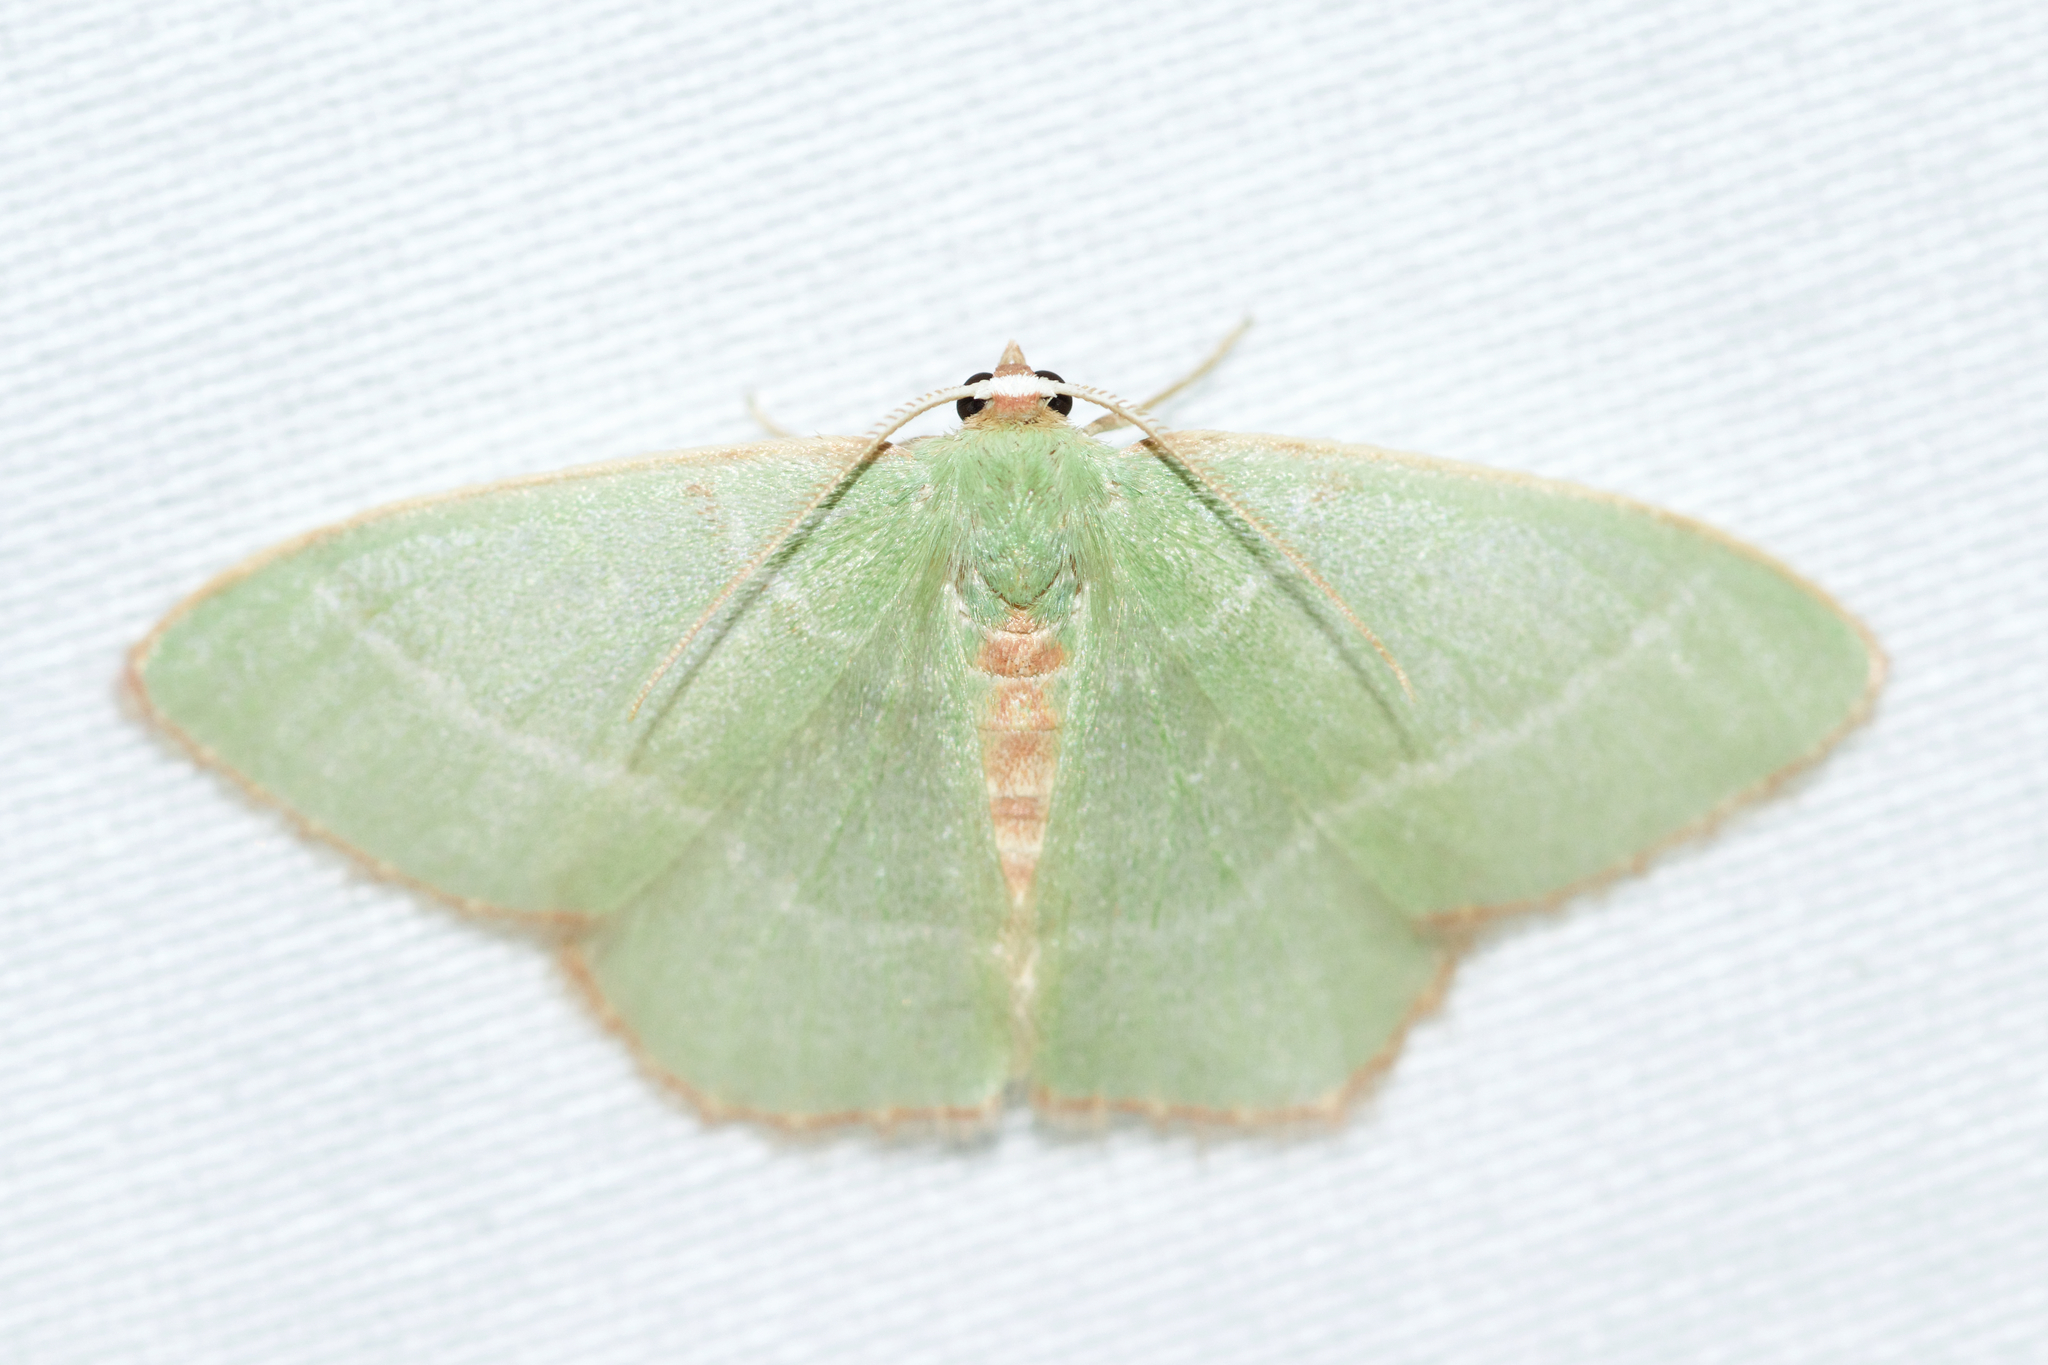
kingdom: Animalia
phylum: Arthropoda
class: Insecta
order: Lepidoptera
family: Geometridae
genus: Nemoria
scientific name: Nemoria bistriaria
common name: Red-fringed emerald
